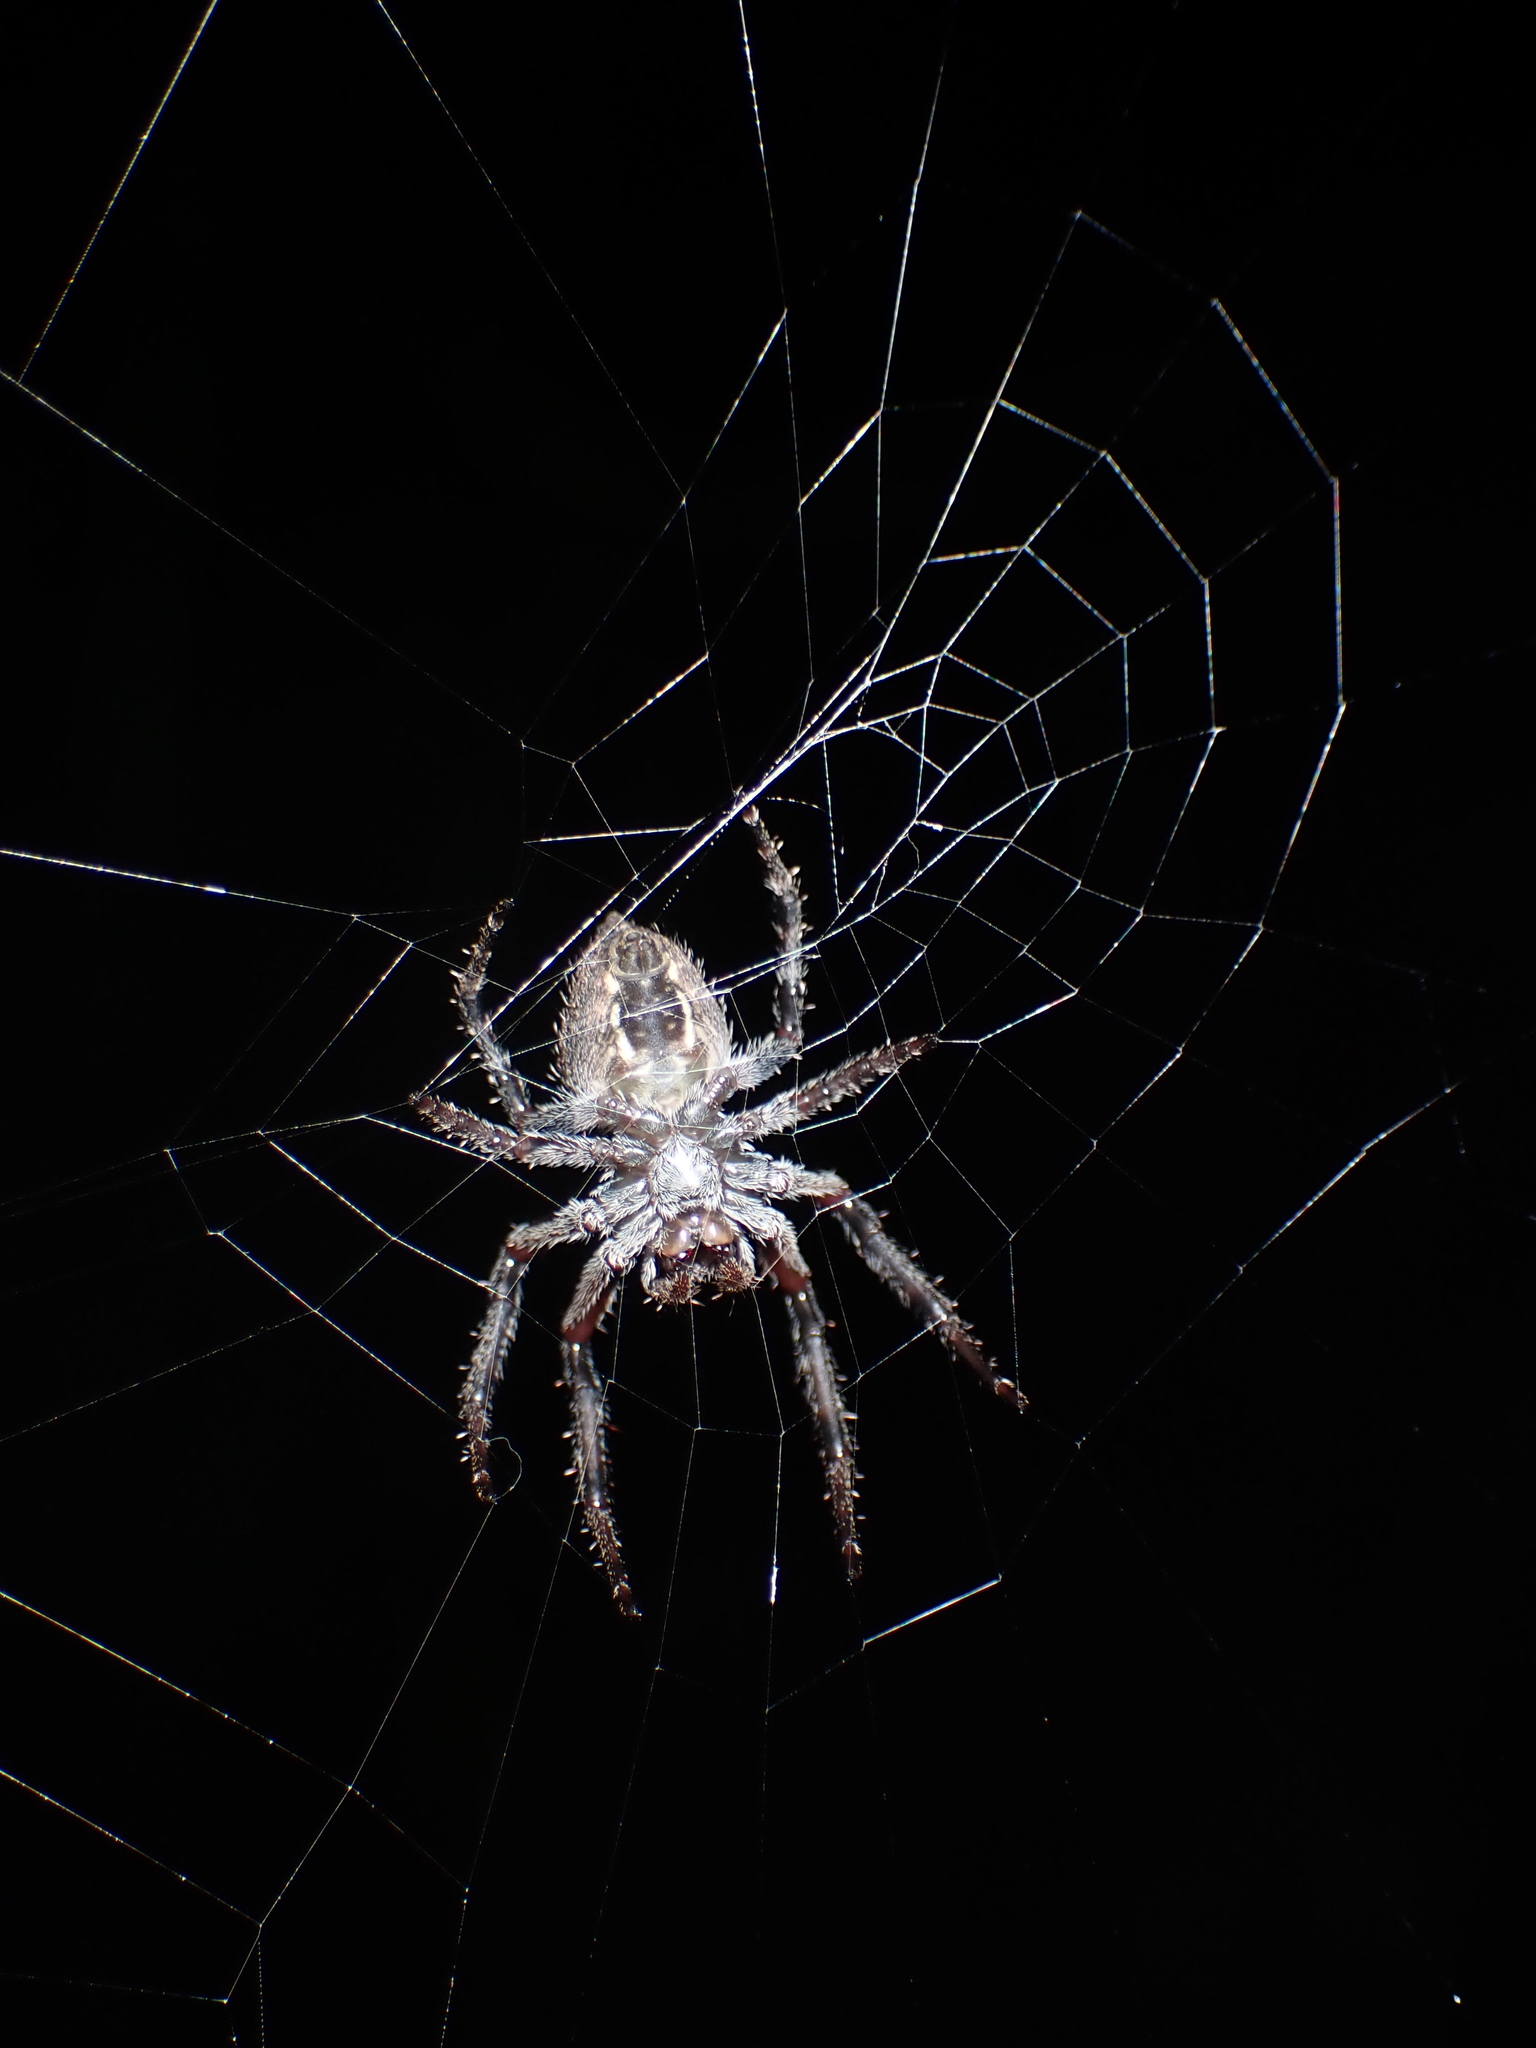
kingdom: Animalia
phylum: Arthropoda
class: Arachnida
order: Araneae
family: Araneidae
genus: Eriophora
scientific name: Eriophora pustulosa
